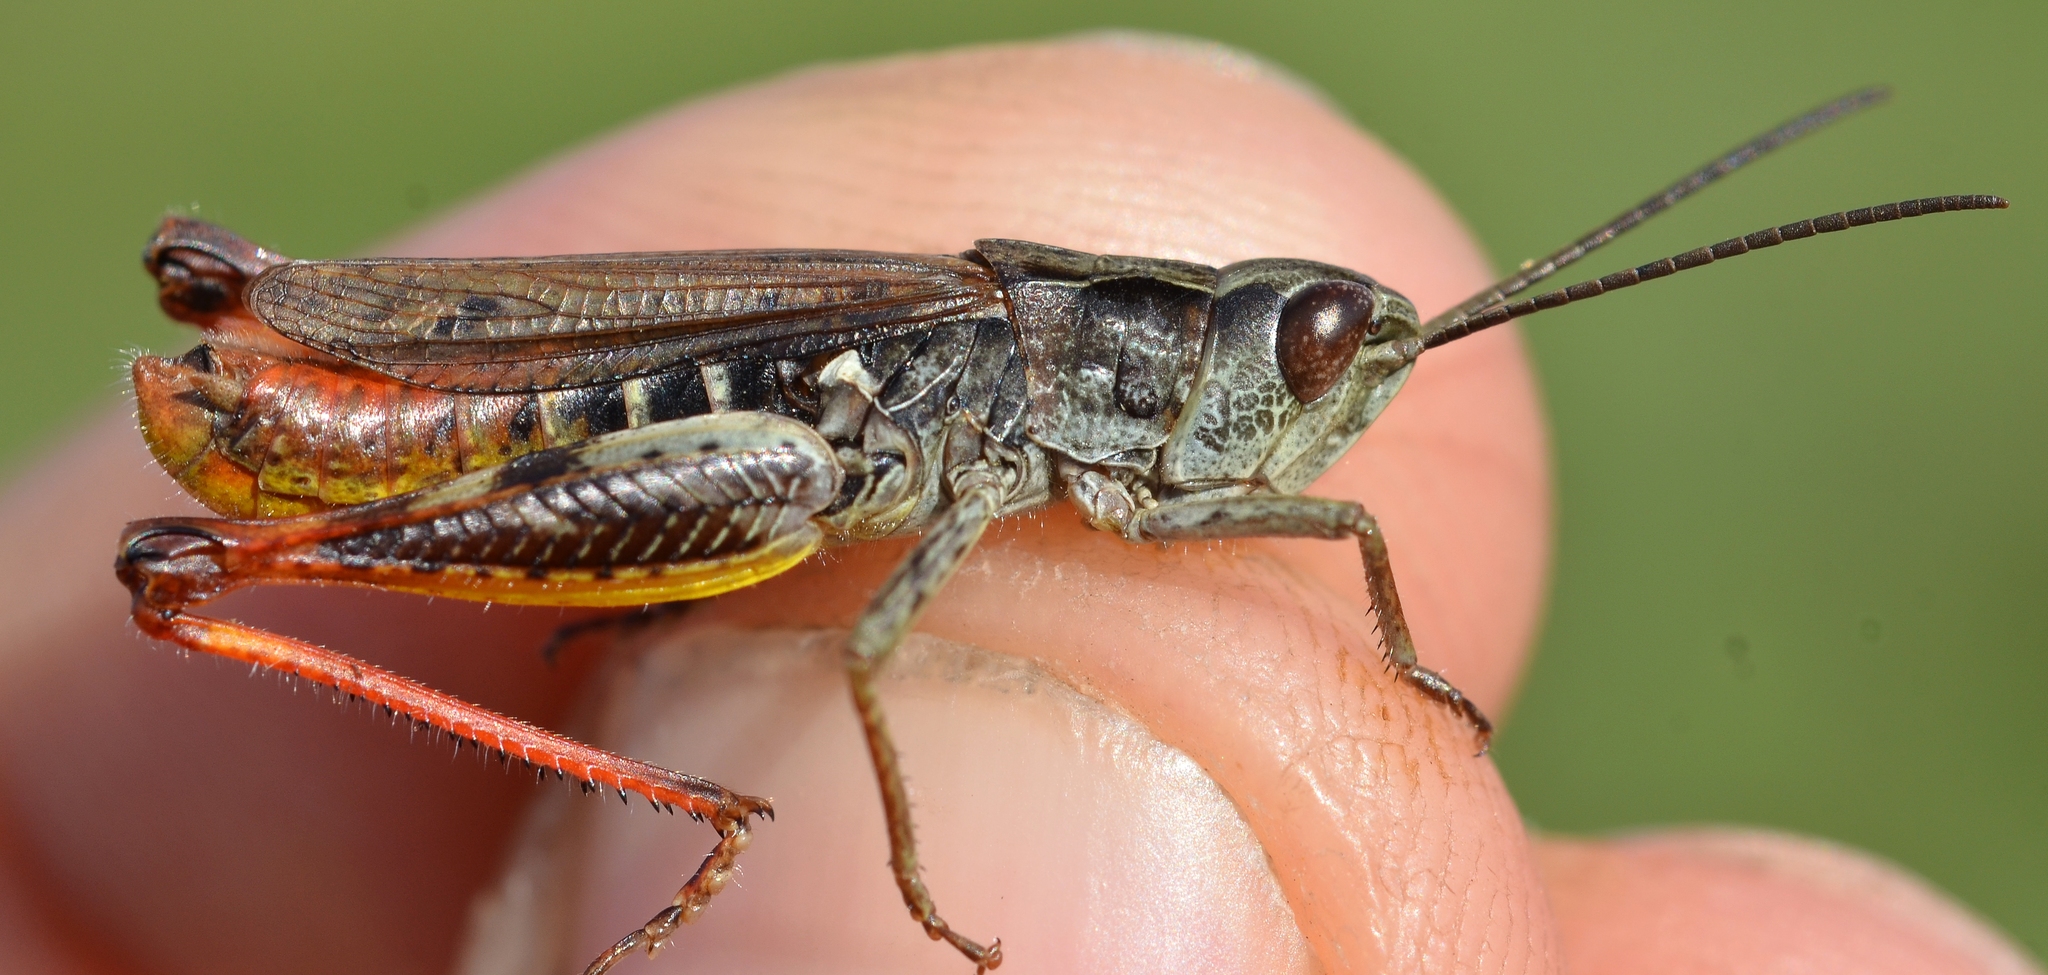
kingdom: Animalia
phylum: Arthropoda
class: Insecta
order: Orthoptera
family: Acrididae
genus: Chorthippus
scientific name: Chorthippus saulcyi
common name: French grasshopper
